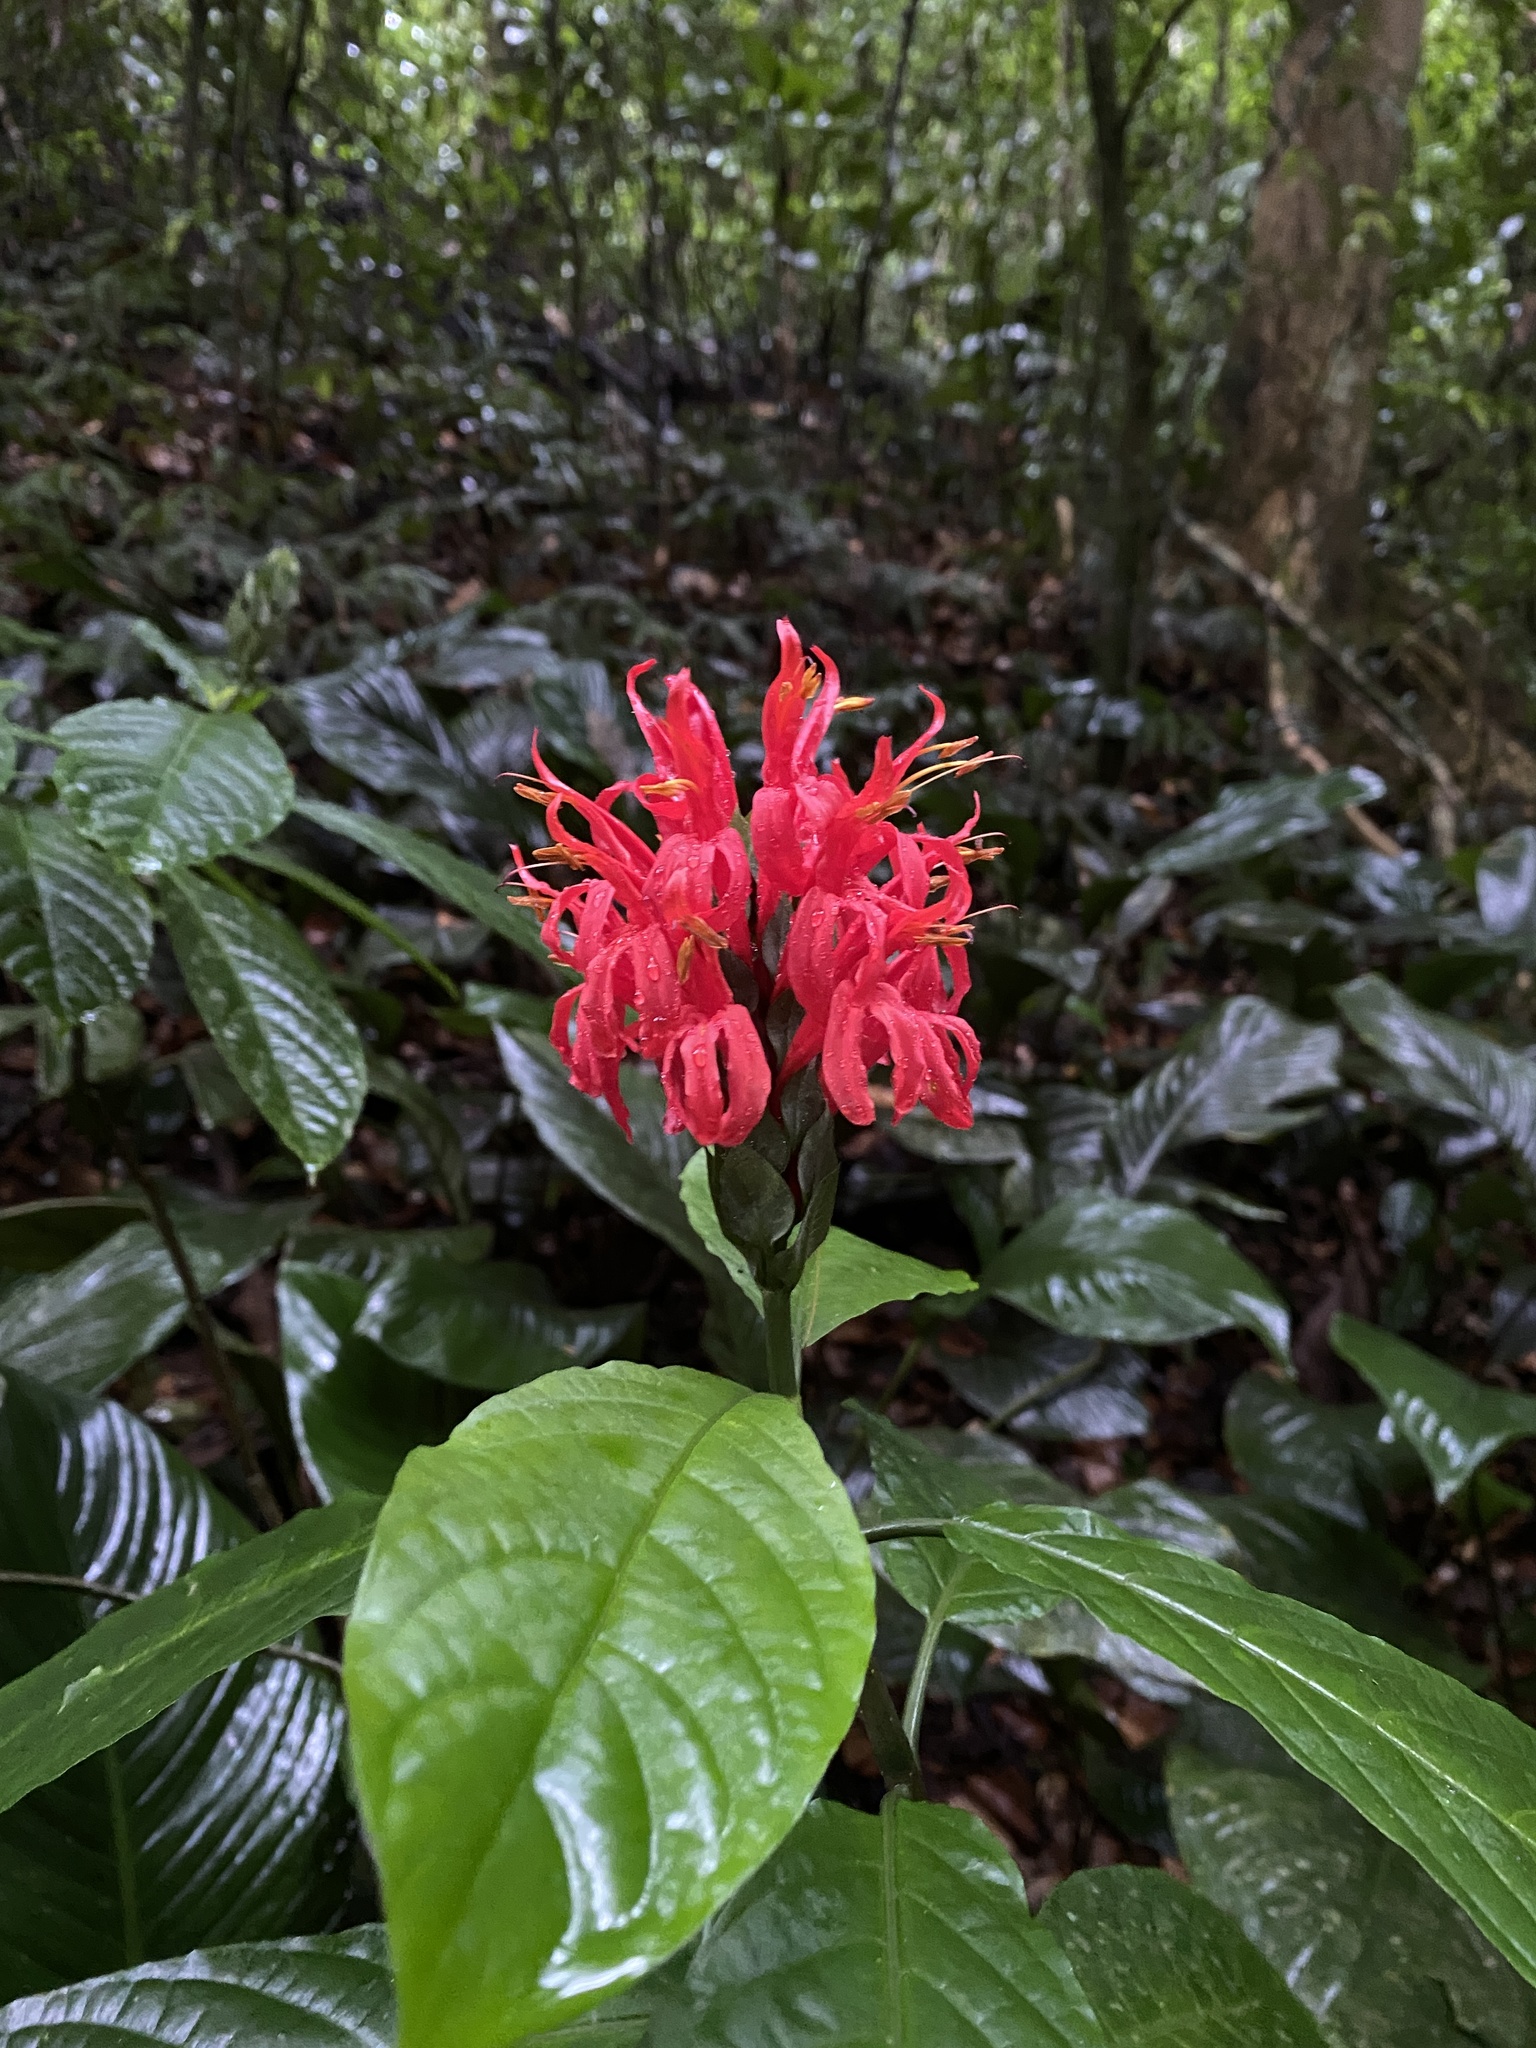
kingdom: Plantae
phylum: Tracheophyta
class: Magnoliopsida
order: Lamiales
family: Acanthaceae
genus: Pachystachys
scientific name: Pachystachys coccinea
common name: Cardinal's-guard
